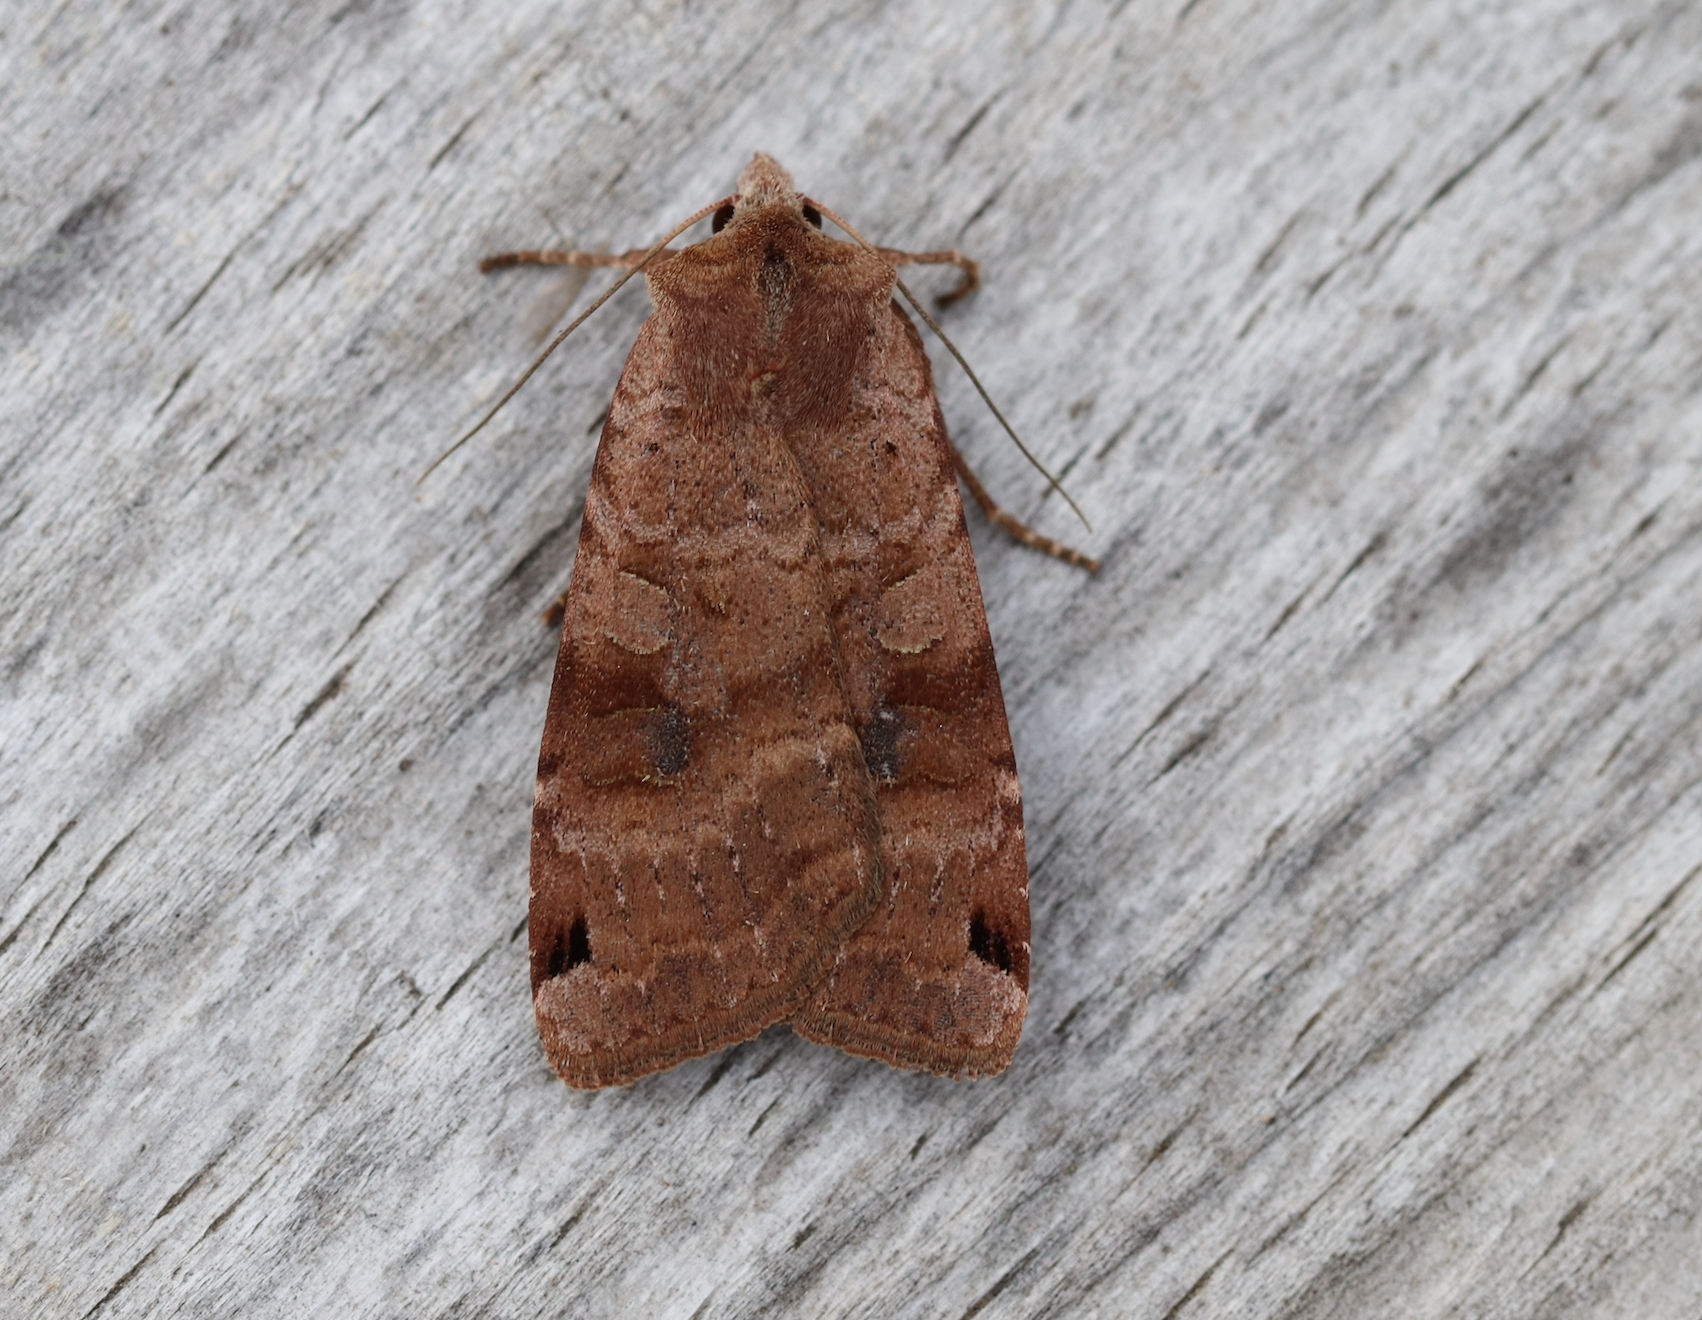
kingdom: Animalia
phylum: Arthropoda
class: Insecta
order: Lepidoptera
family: Noctuidae
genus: Xestia
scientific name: Xestia baja
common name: Dotted clay
